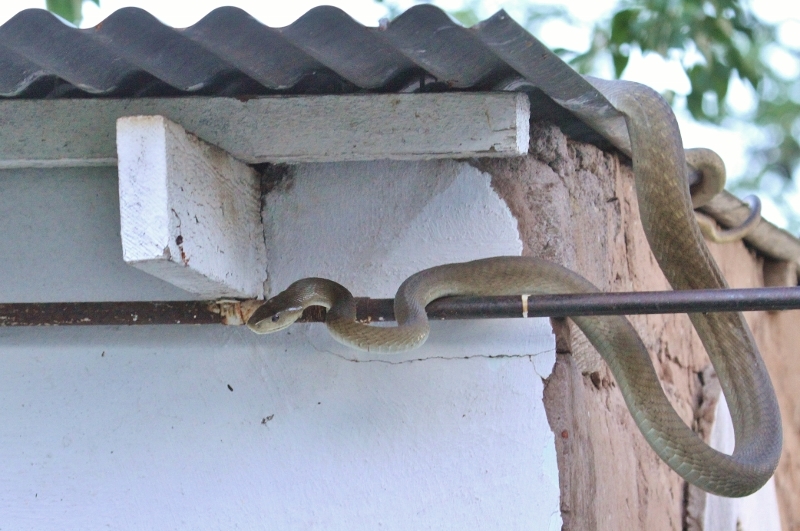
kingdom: Animalia
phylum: Chordata
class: Squamata
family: Elapidae
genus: Dendroaspis
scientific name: Dendroaspis polylepis
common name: Black mamba
